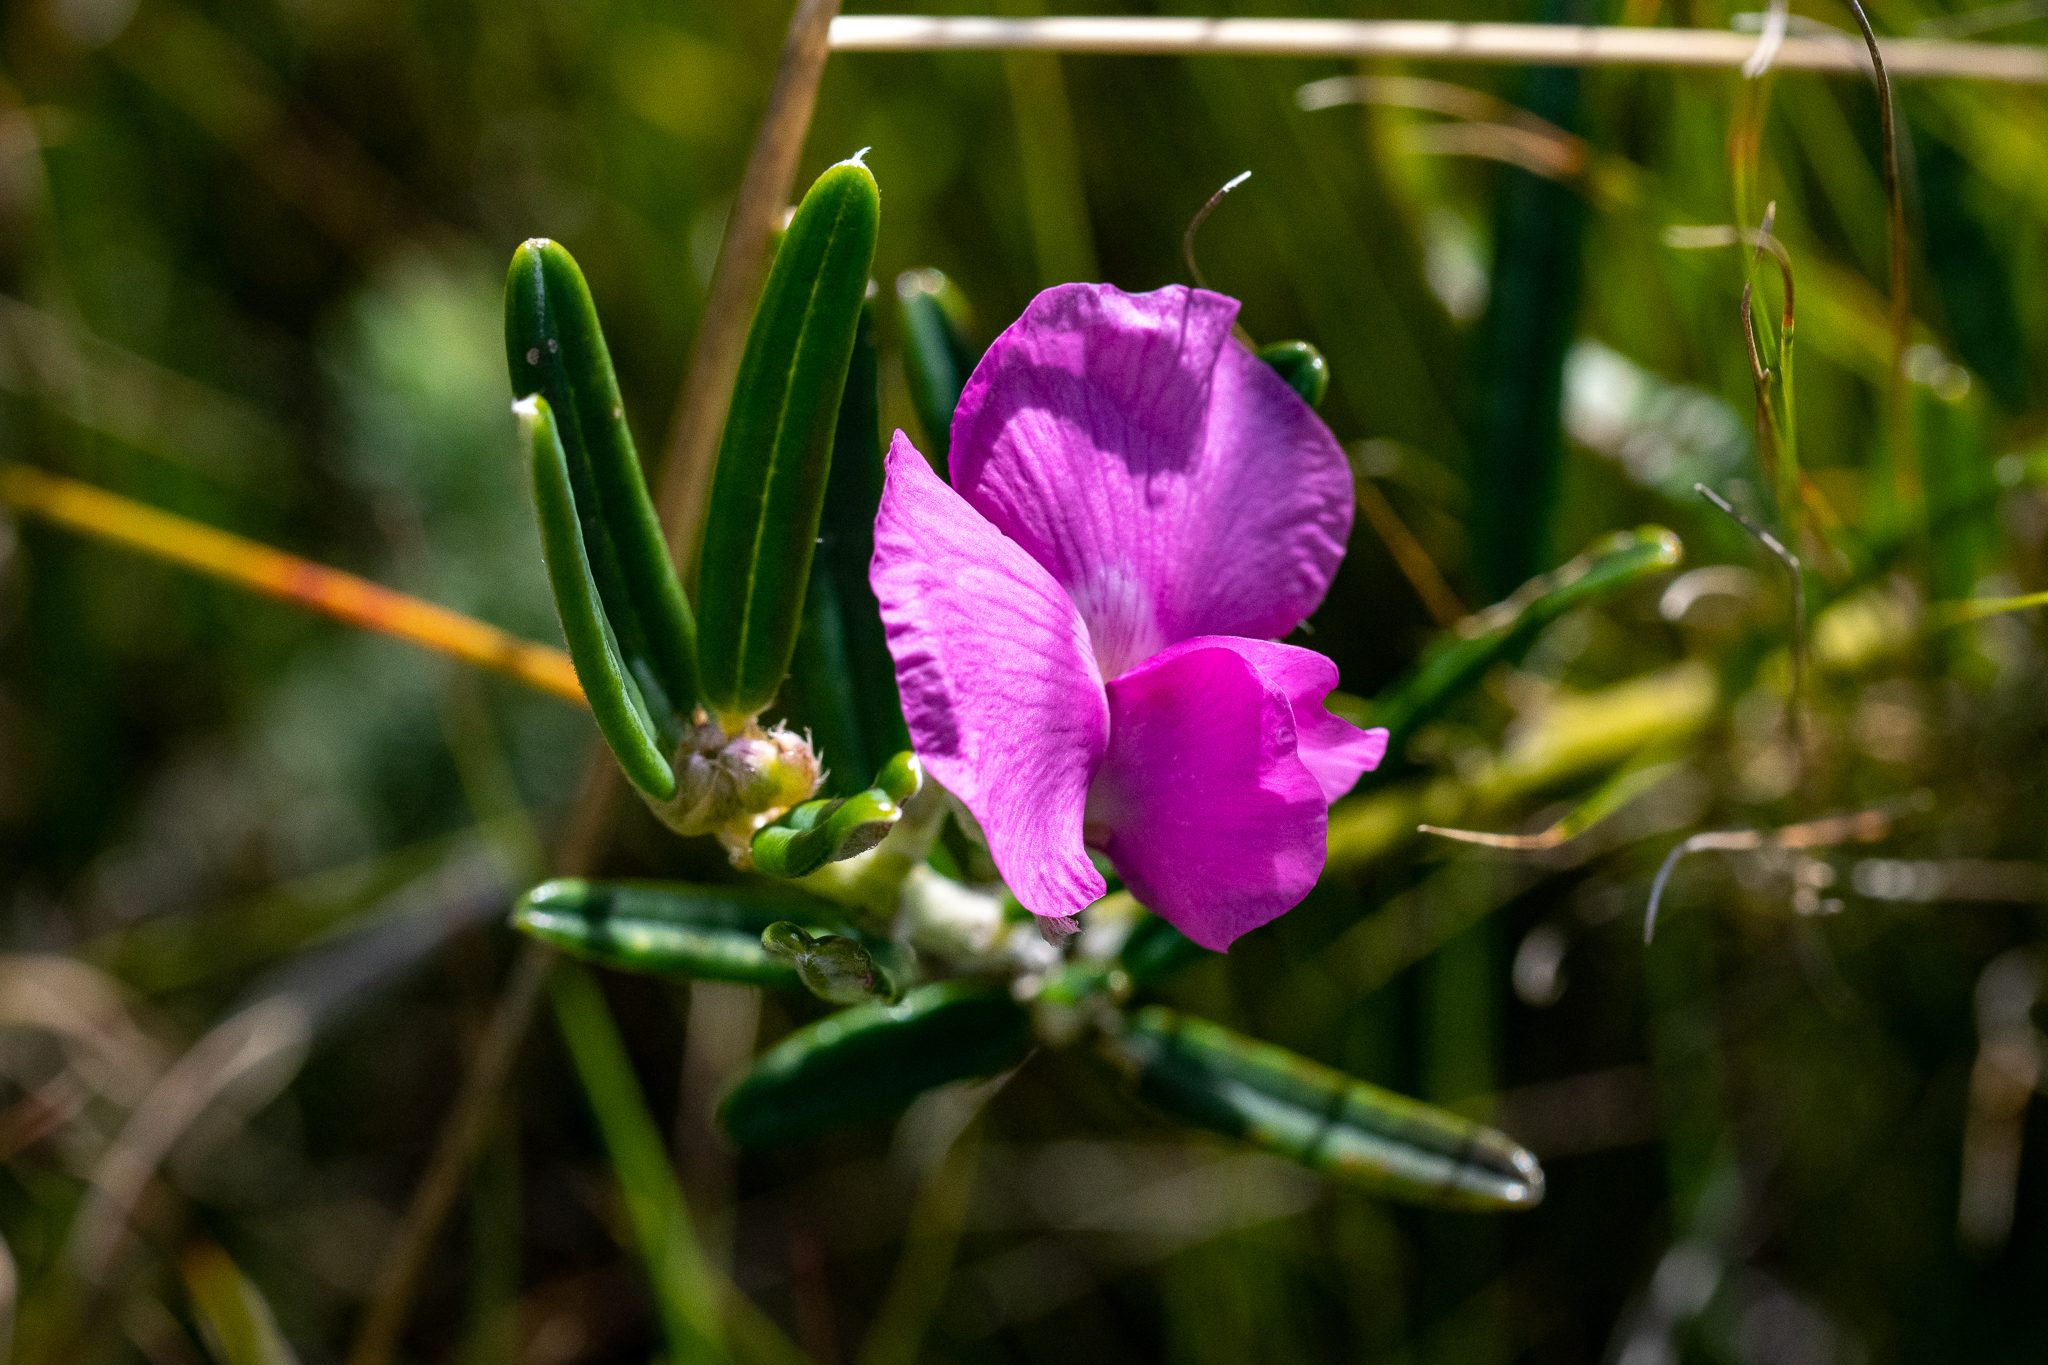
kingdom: Plantae
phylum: Tracheophyta
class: Magnoliopsida
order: Fabales
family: Fabaceae
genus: Podalyria
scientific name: Podalyria oleifolia
